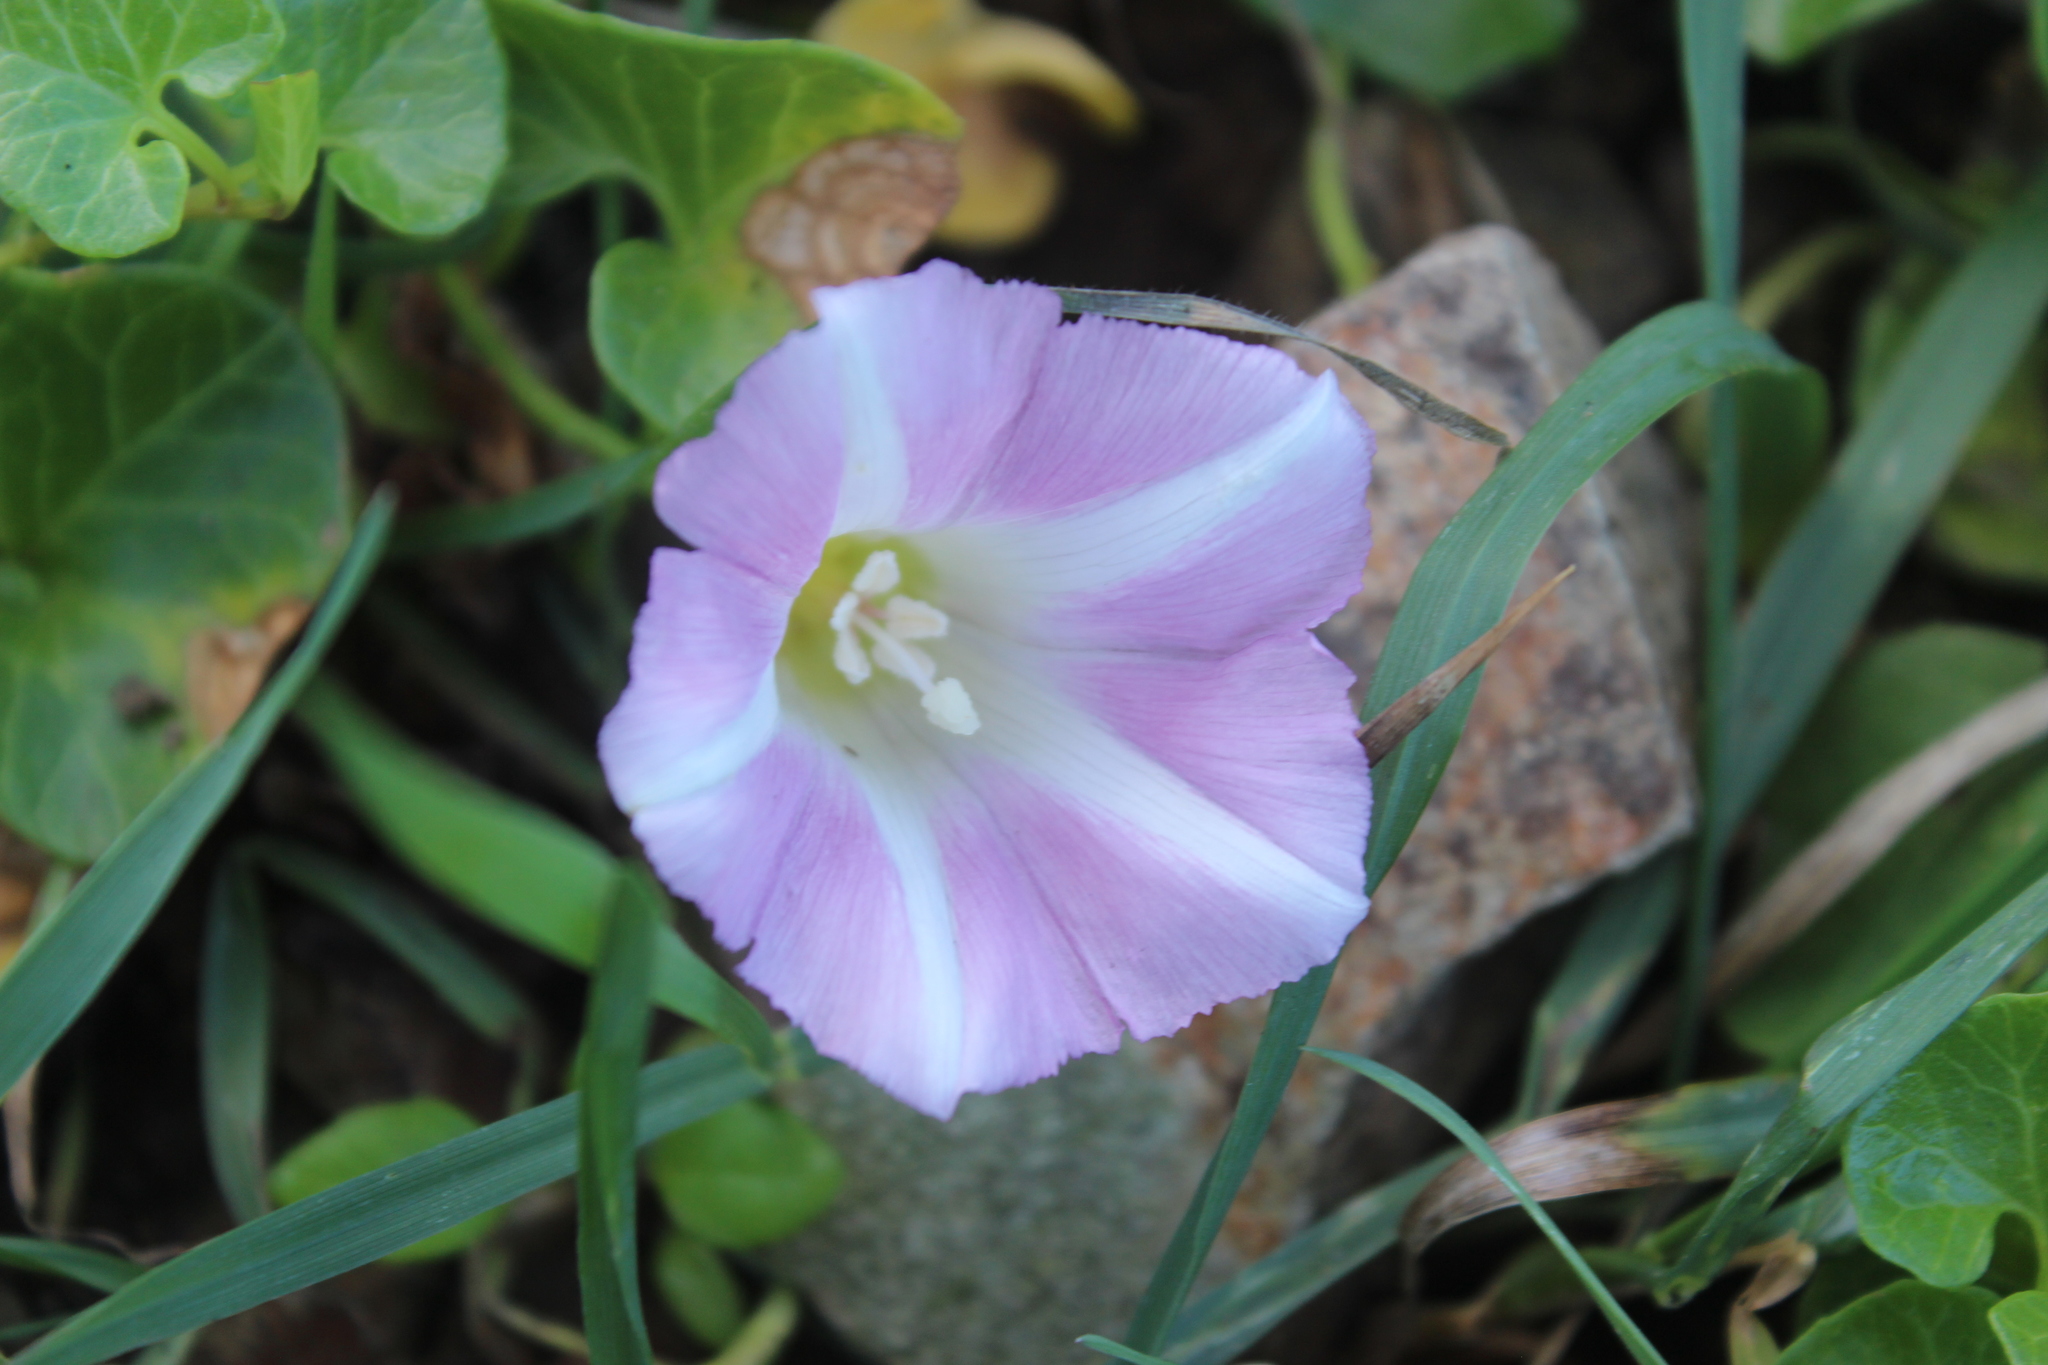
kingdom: Plantae
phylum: Tracheophyta
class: Magnoliopsida
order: Solanales
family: Convolvulaceae
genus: Calystegia
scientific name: Calystegia soldanella
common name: Sea bindweed
